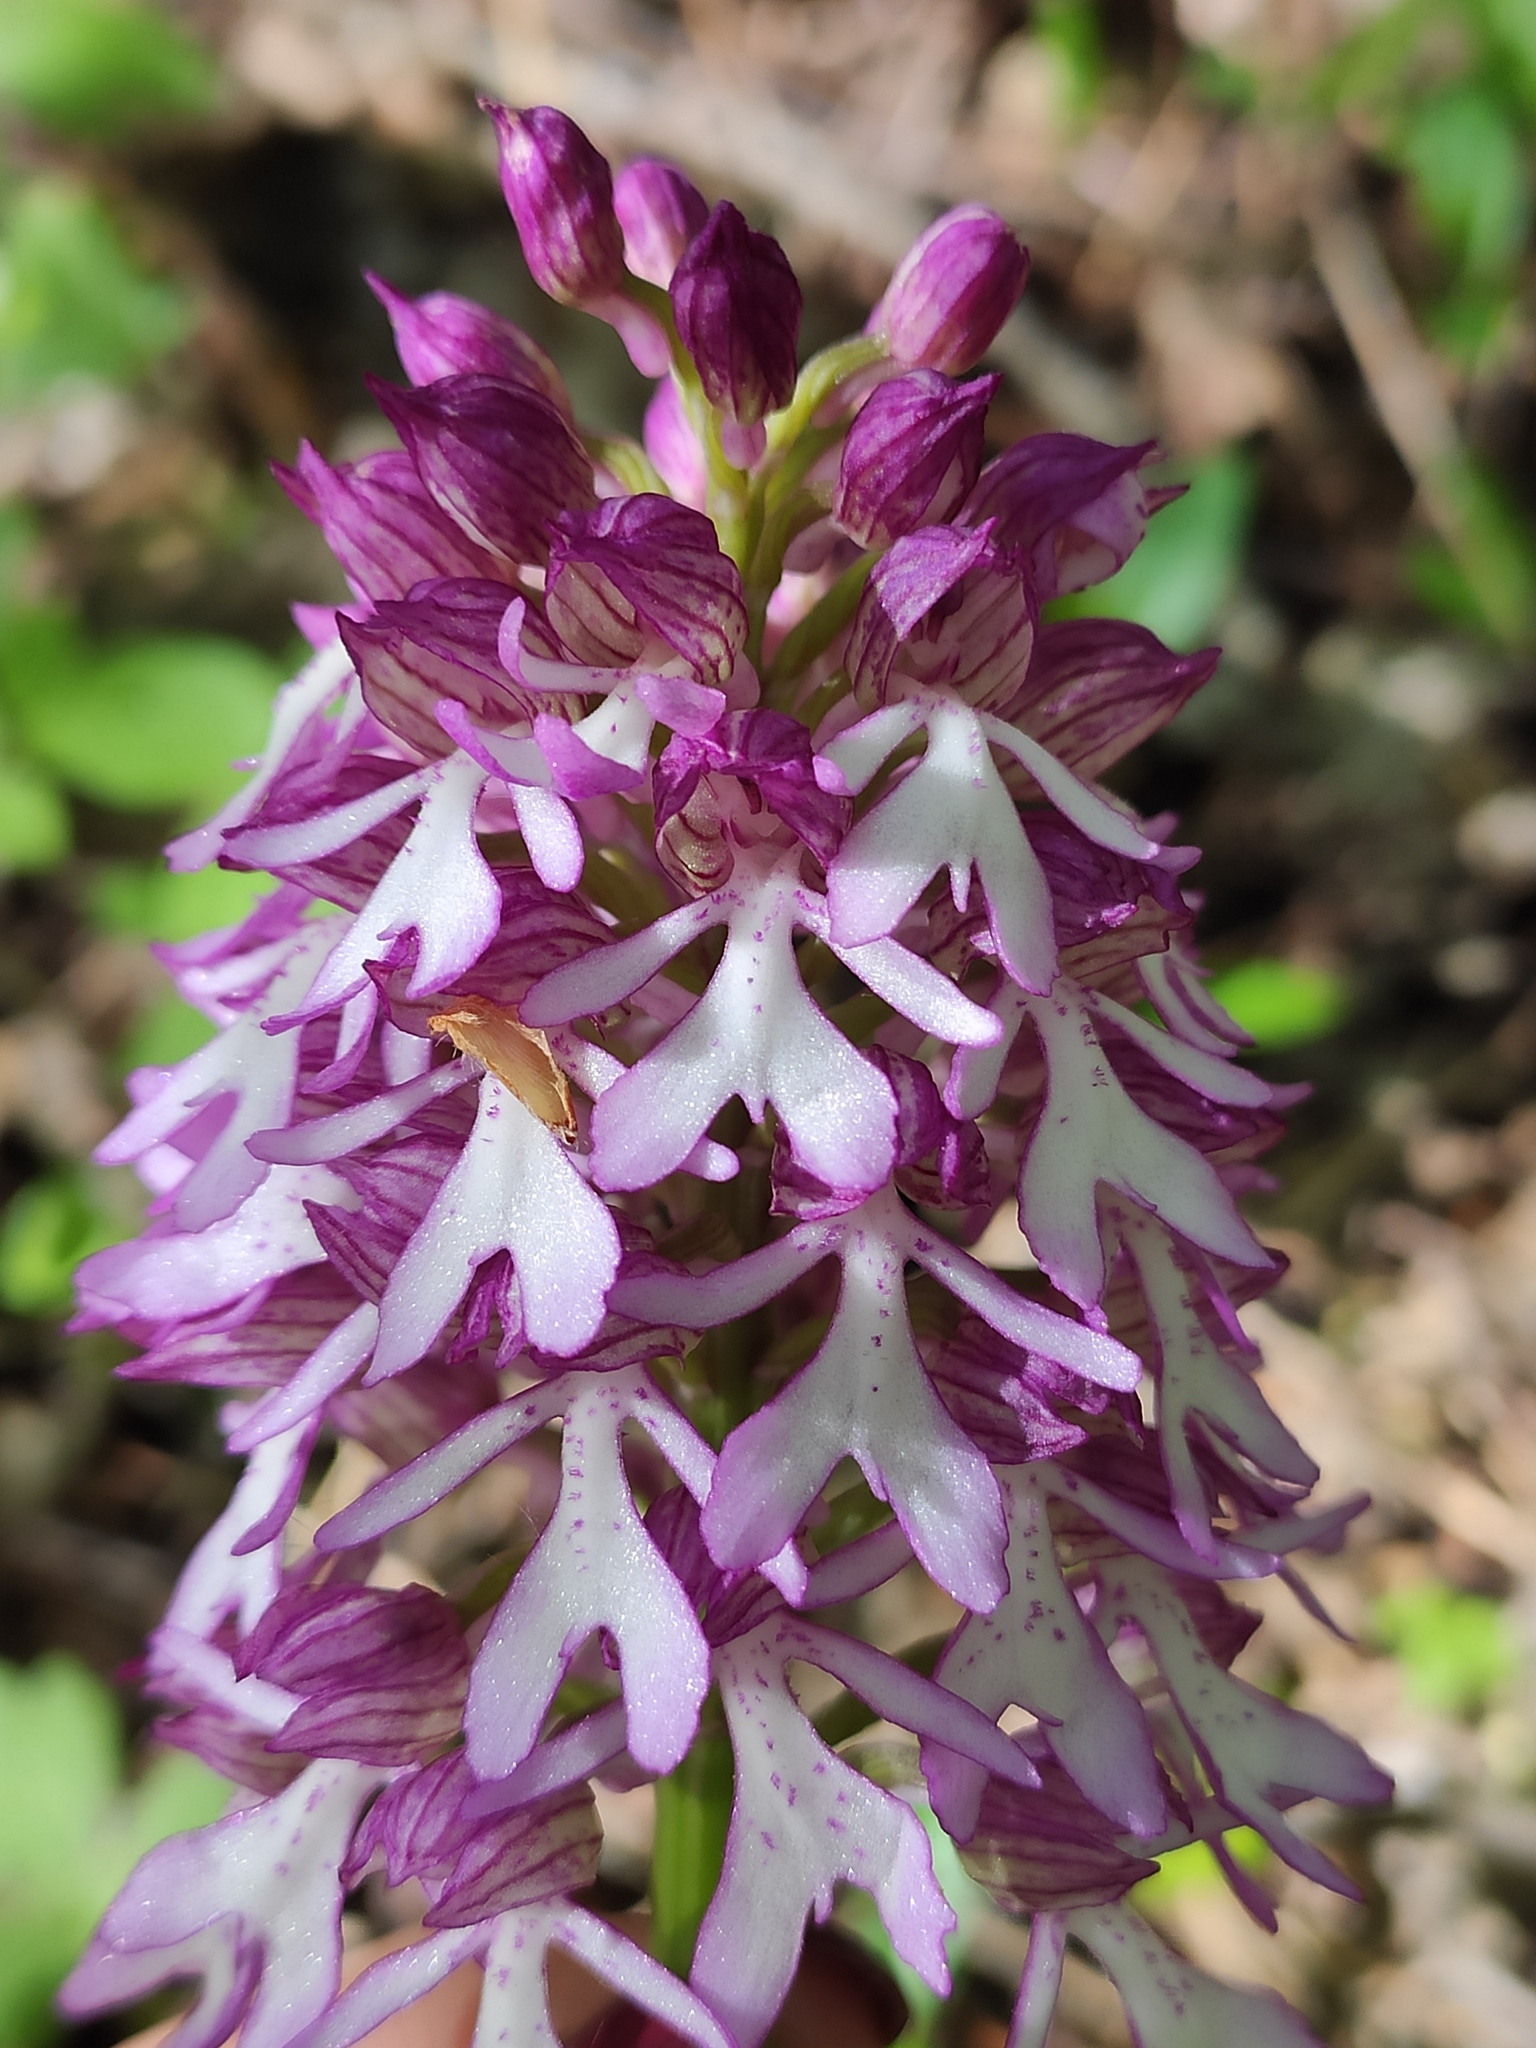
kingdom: Plantae
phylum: Tracheophyta
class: Liliopsida
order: Asparagales
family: Orchidaceae
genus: Orchis
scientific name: Orchis purpurea
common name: Lady orchid
